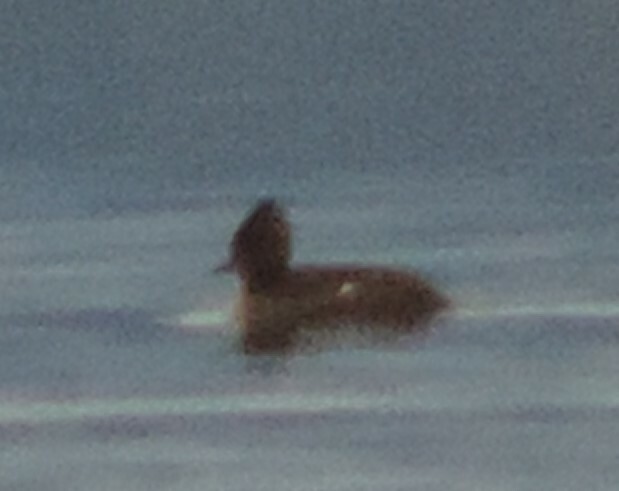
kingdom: Animalia
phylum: Chordata
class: Aves
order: Anseriformes
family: Anatidae
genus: Lophodytes
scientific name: Lophodytes cucullatus
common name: Hooded merganser
